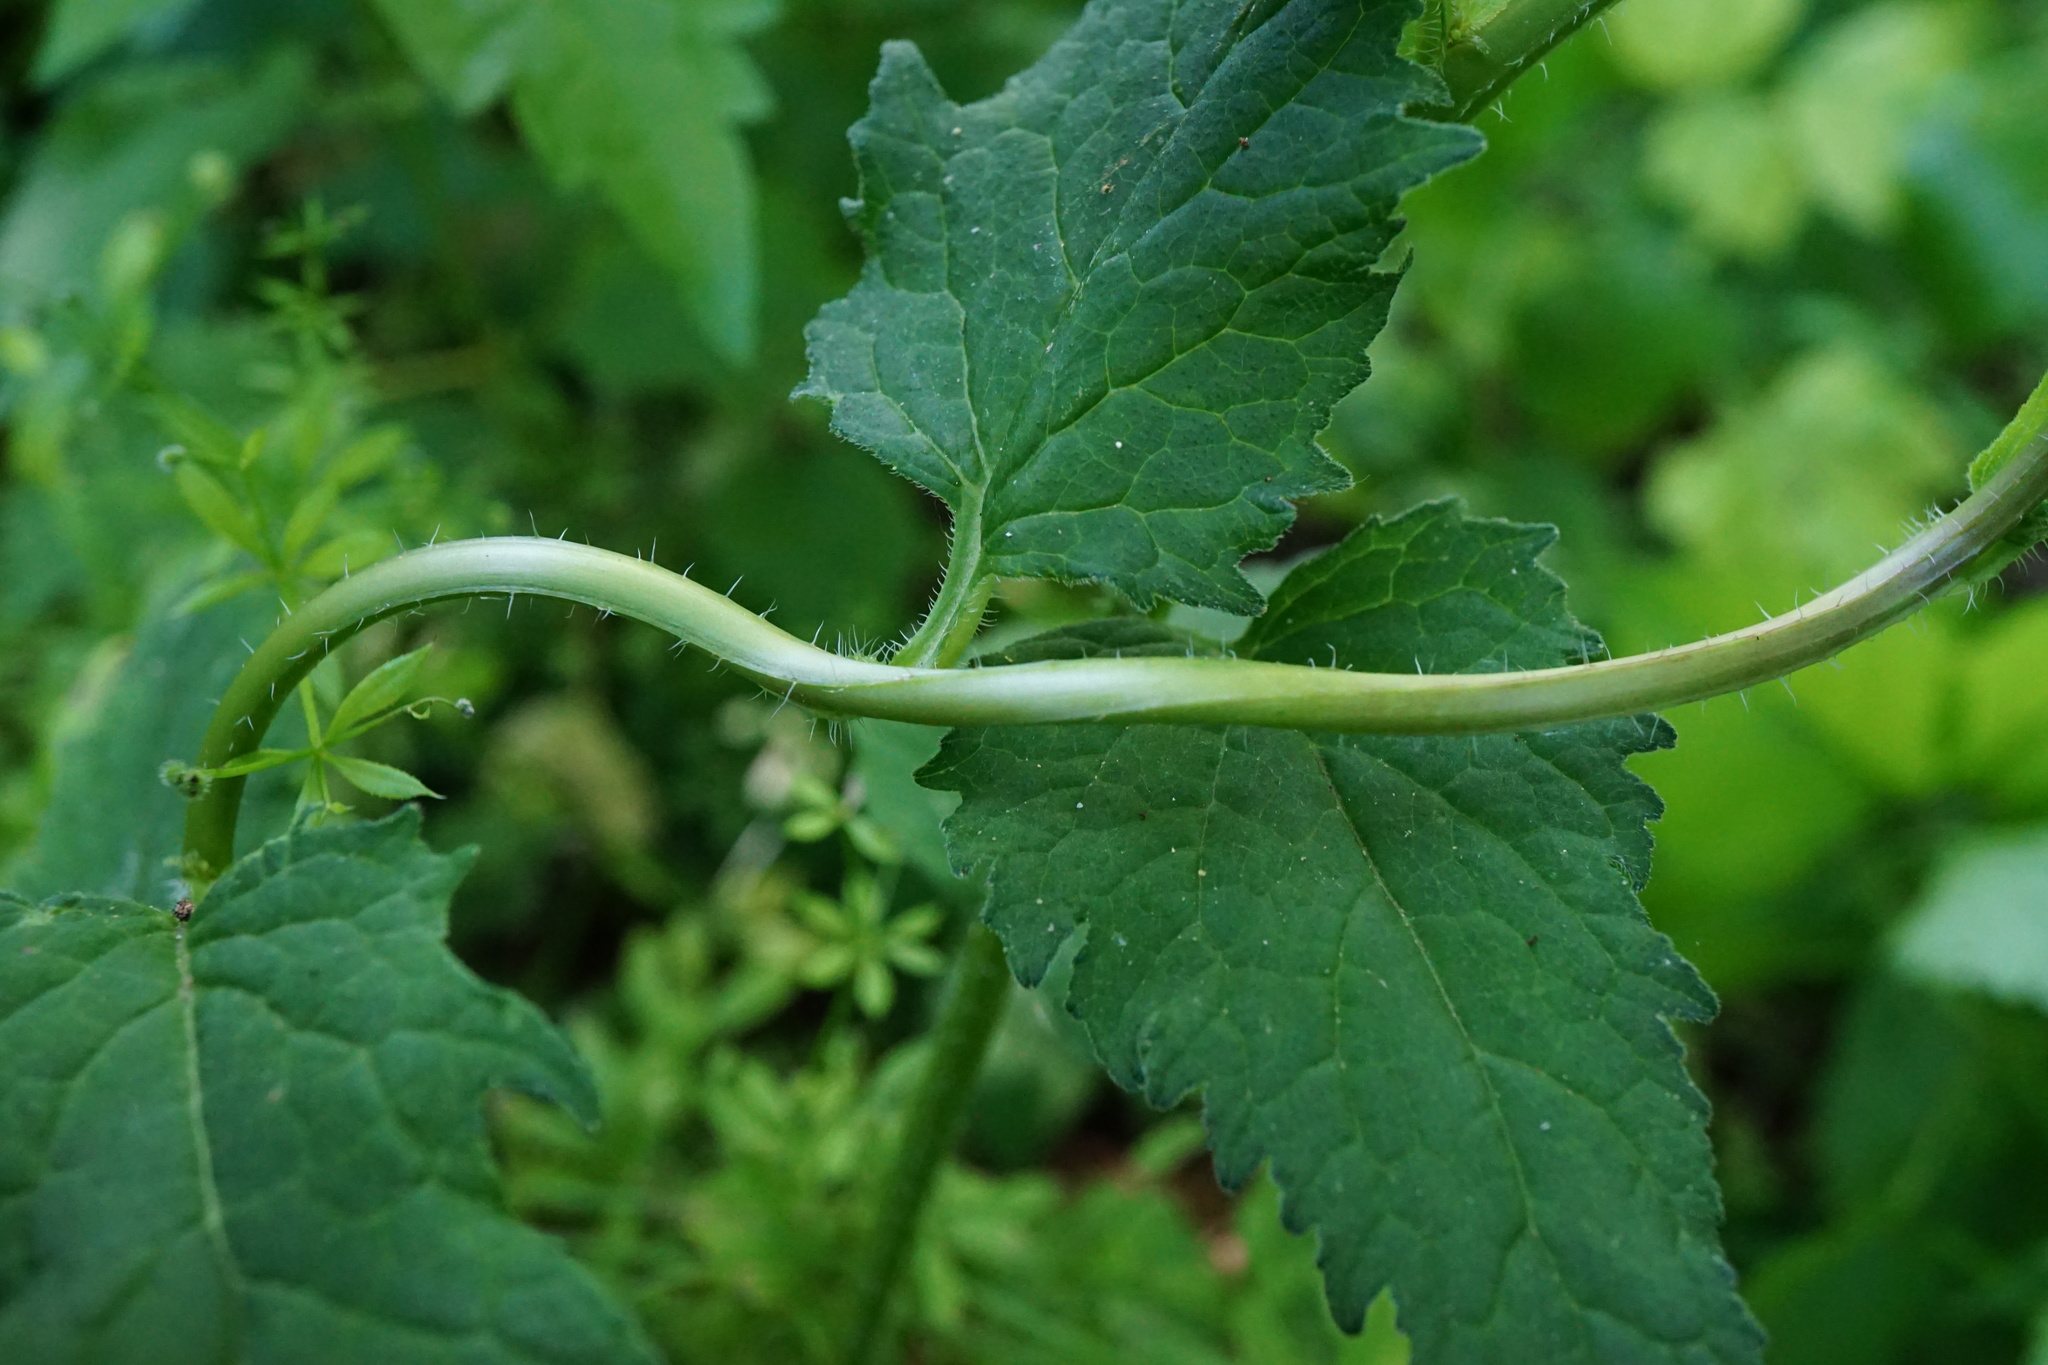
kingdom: Plantae
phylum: Tracheophyta
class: Magnoliopsida
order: Asterales
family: Campanulaceae
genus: Campanula
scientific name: Campanula trachelium
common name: Nettle-leaved bellflower
